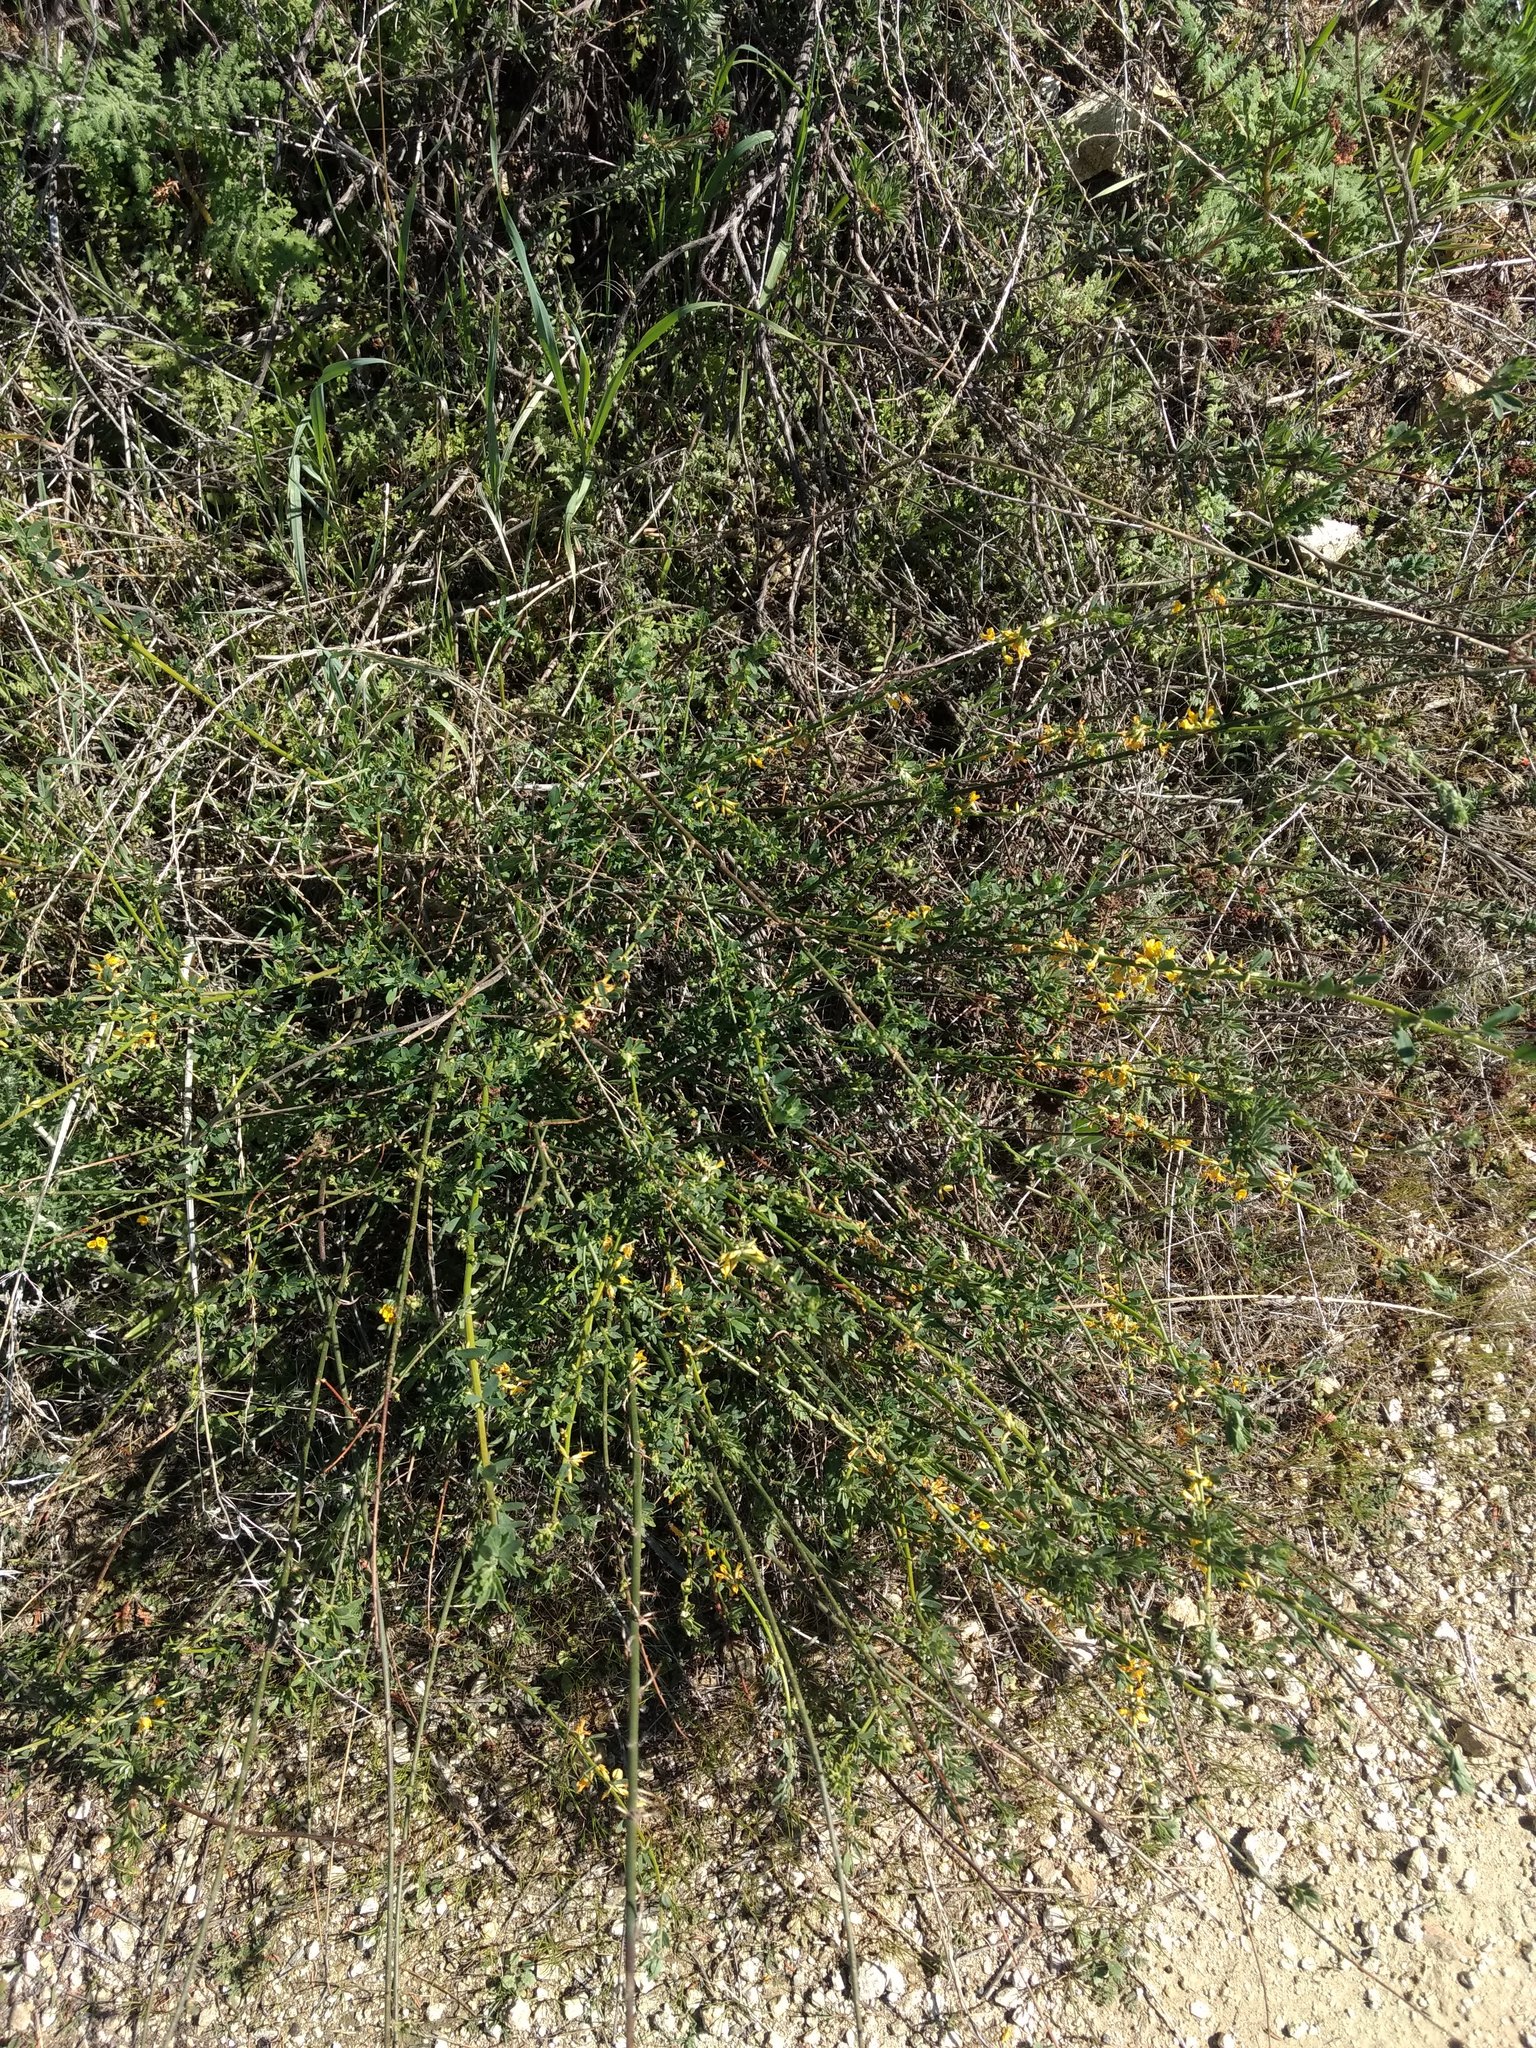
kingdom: Plantae
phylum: Tracheophyta
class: Magnoliopsida
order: Fabales
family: Fabaceae
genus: Acmispon
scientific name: Acmispon glaber
